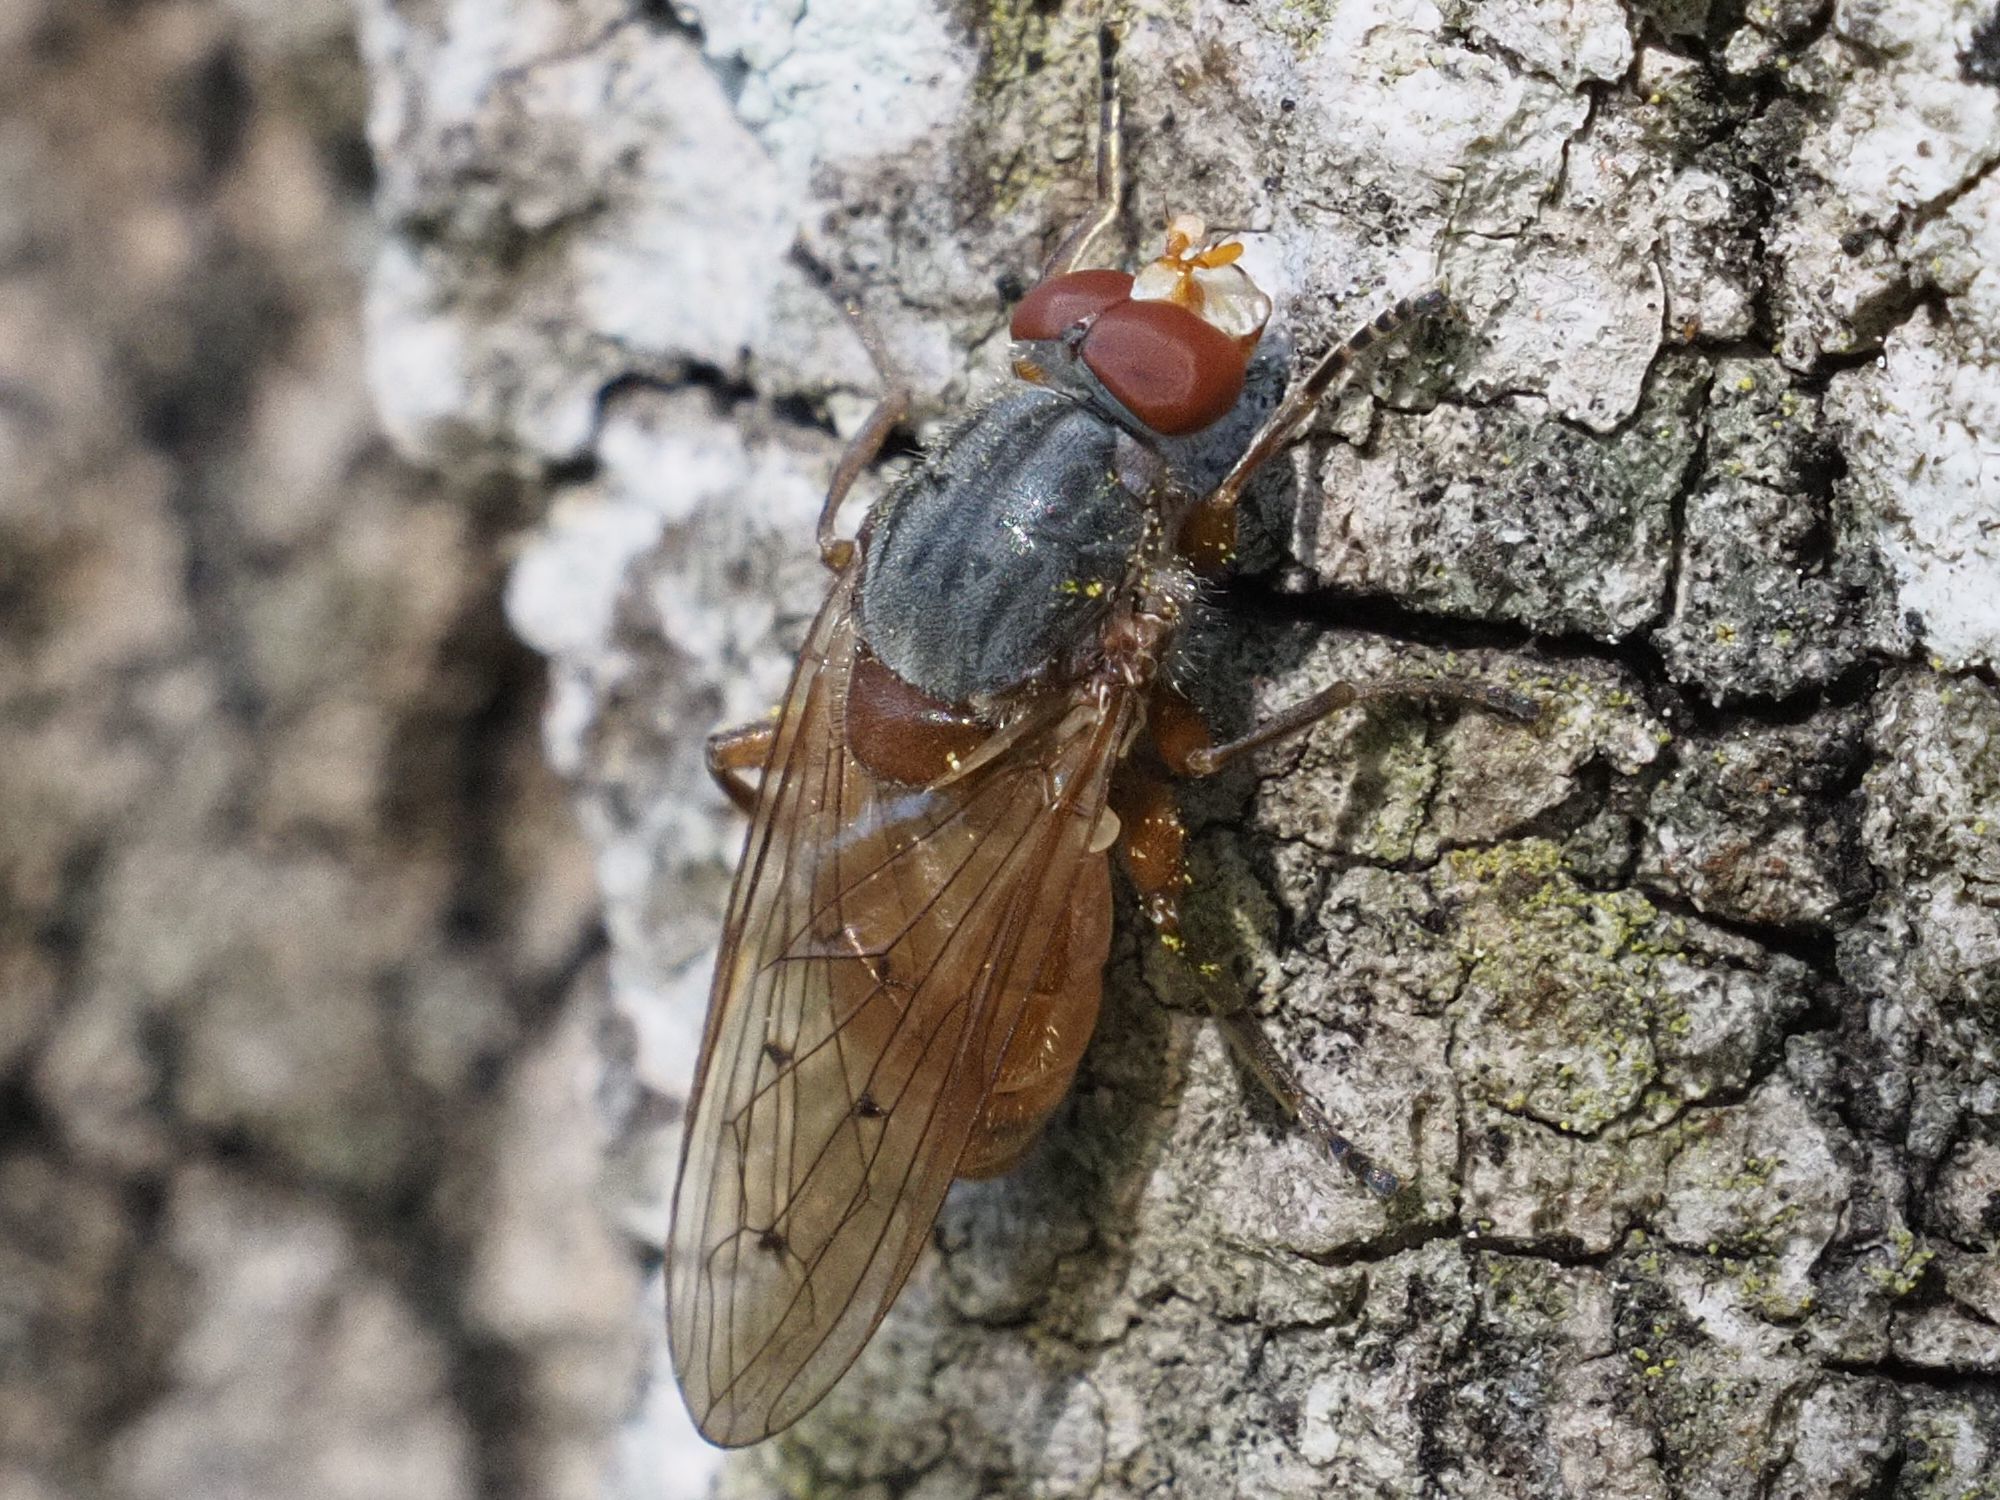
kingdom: Animalia
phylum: Arthropoda
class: Insecta
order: Diptera
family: Syrphidae
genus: Brachyopa
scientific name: Brachyopa maculipennis
